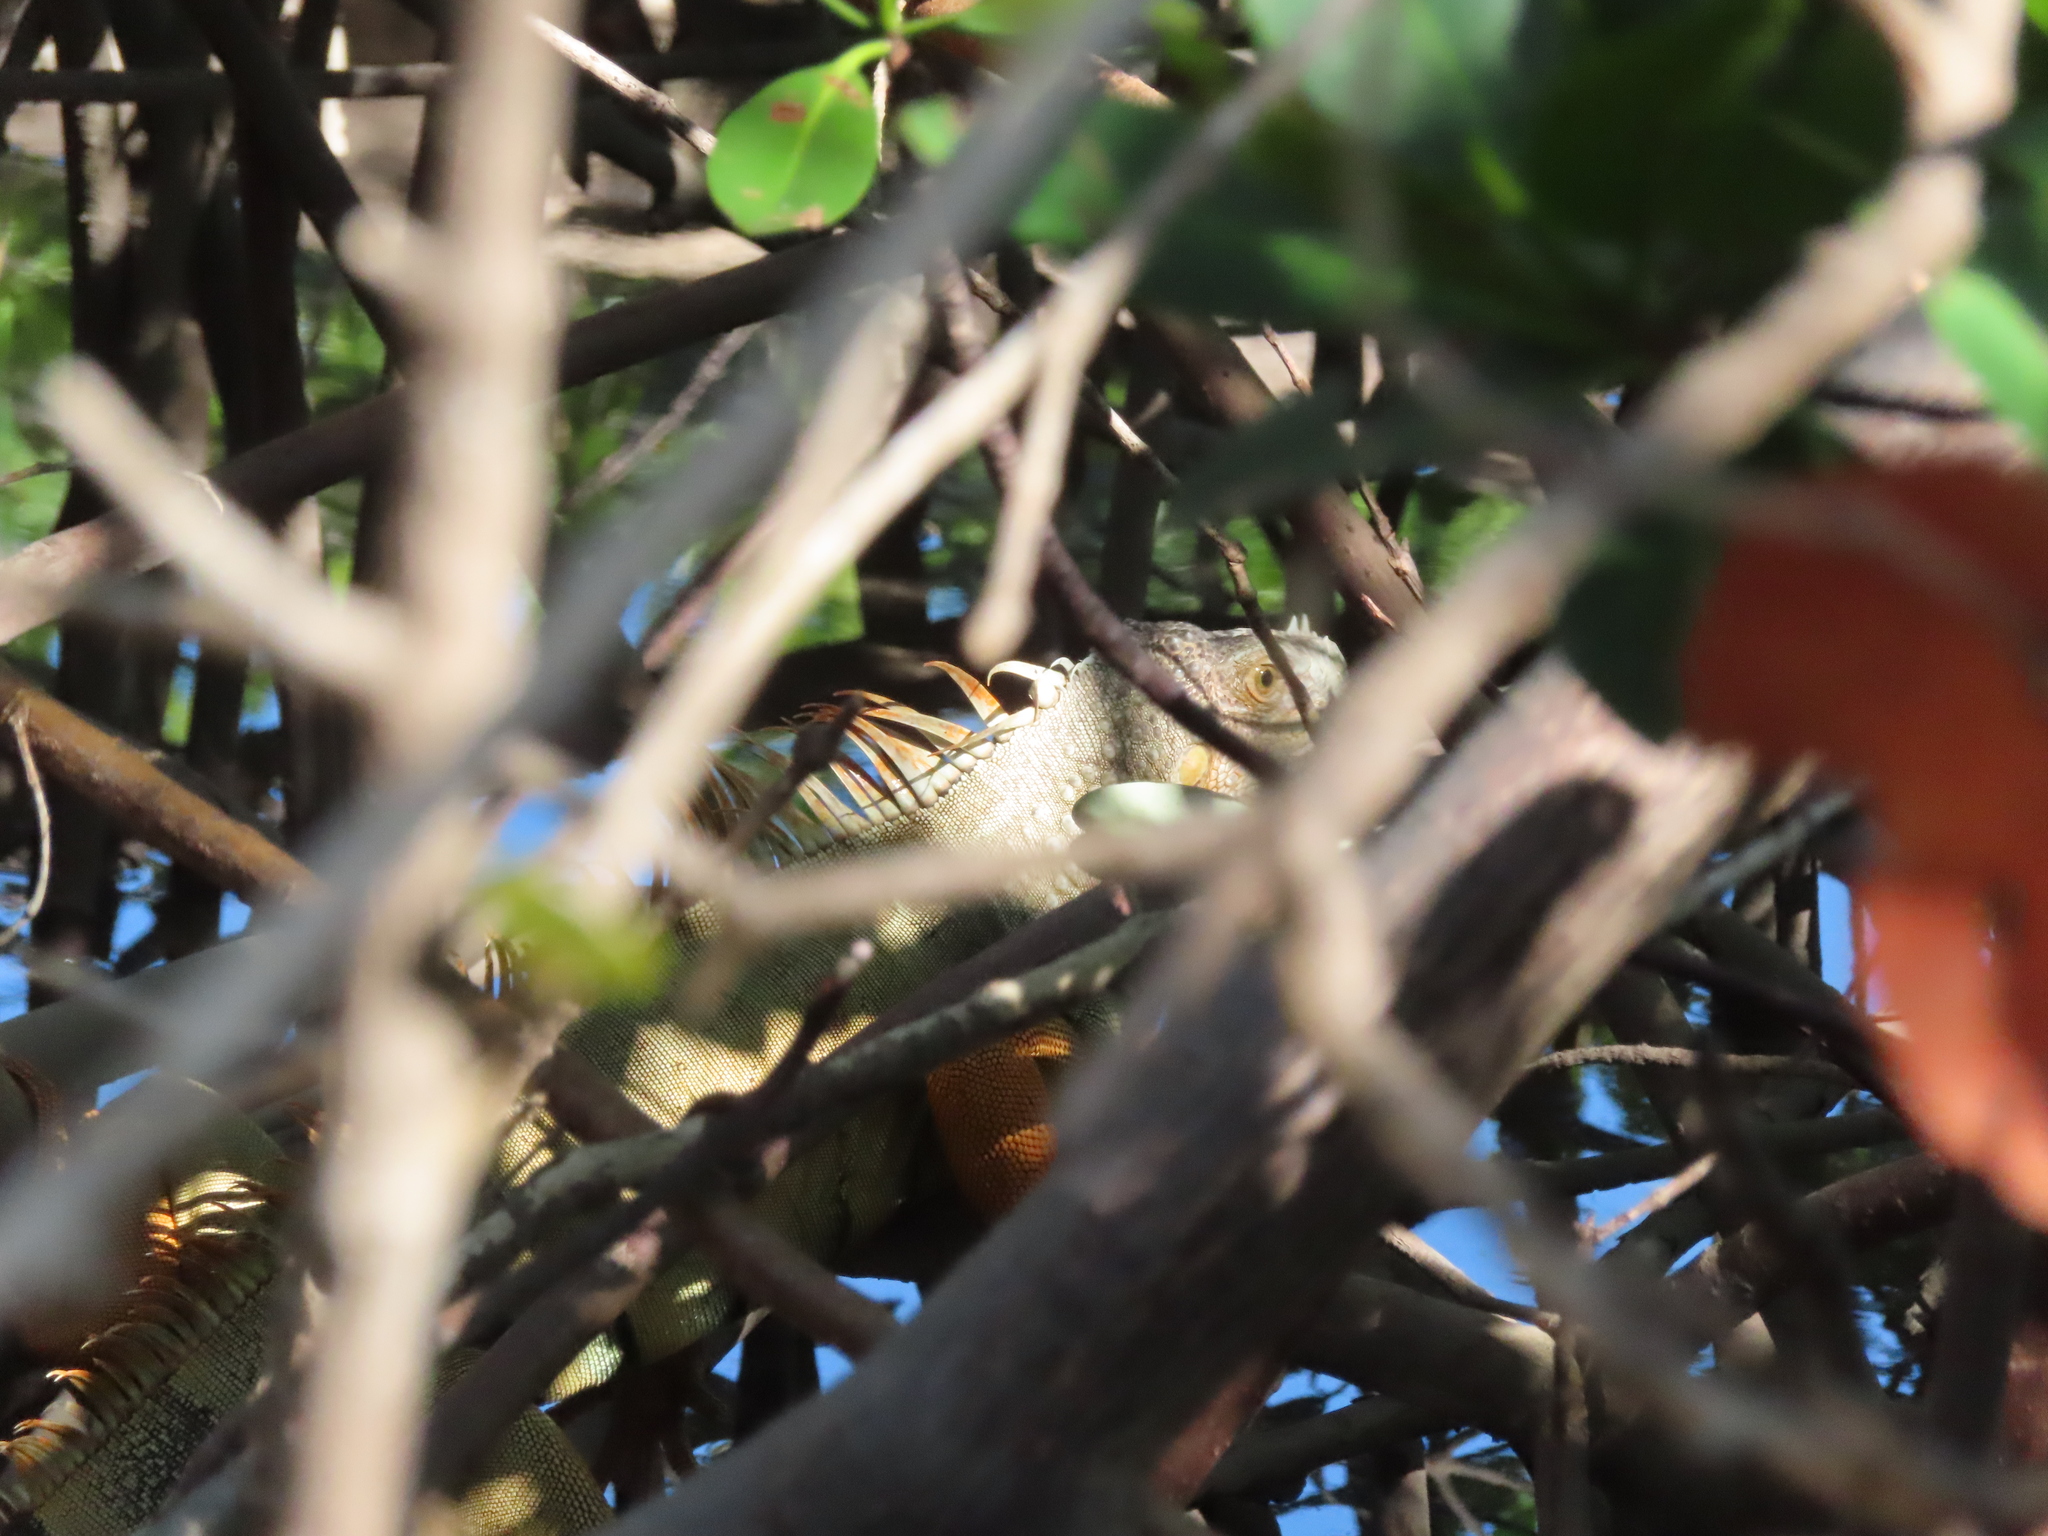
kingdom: Animalia
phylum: Chordata
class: Squamata
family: Iguanidae
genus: Iguana
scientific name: Iguana iguana
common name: Green iguana
